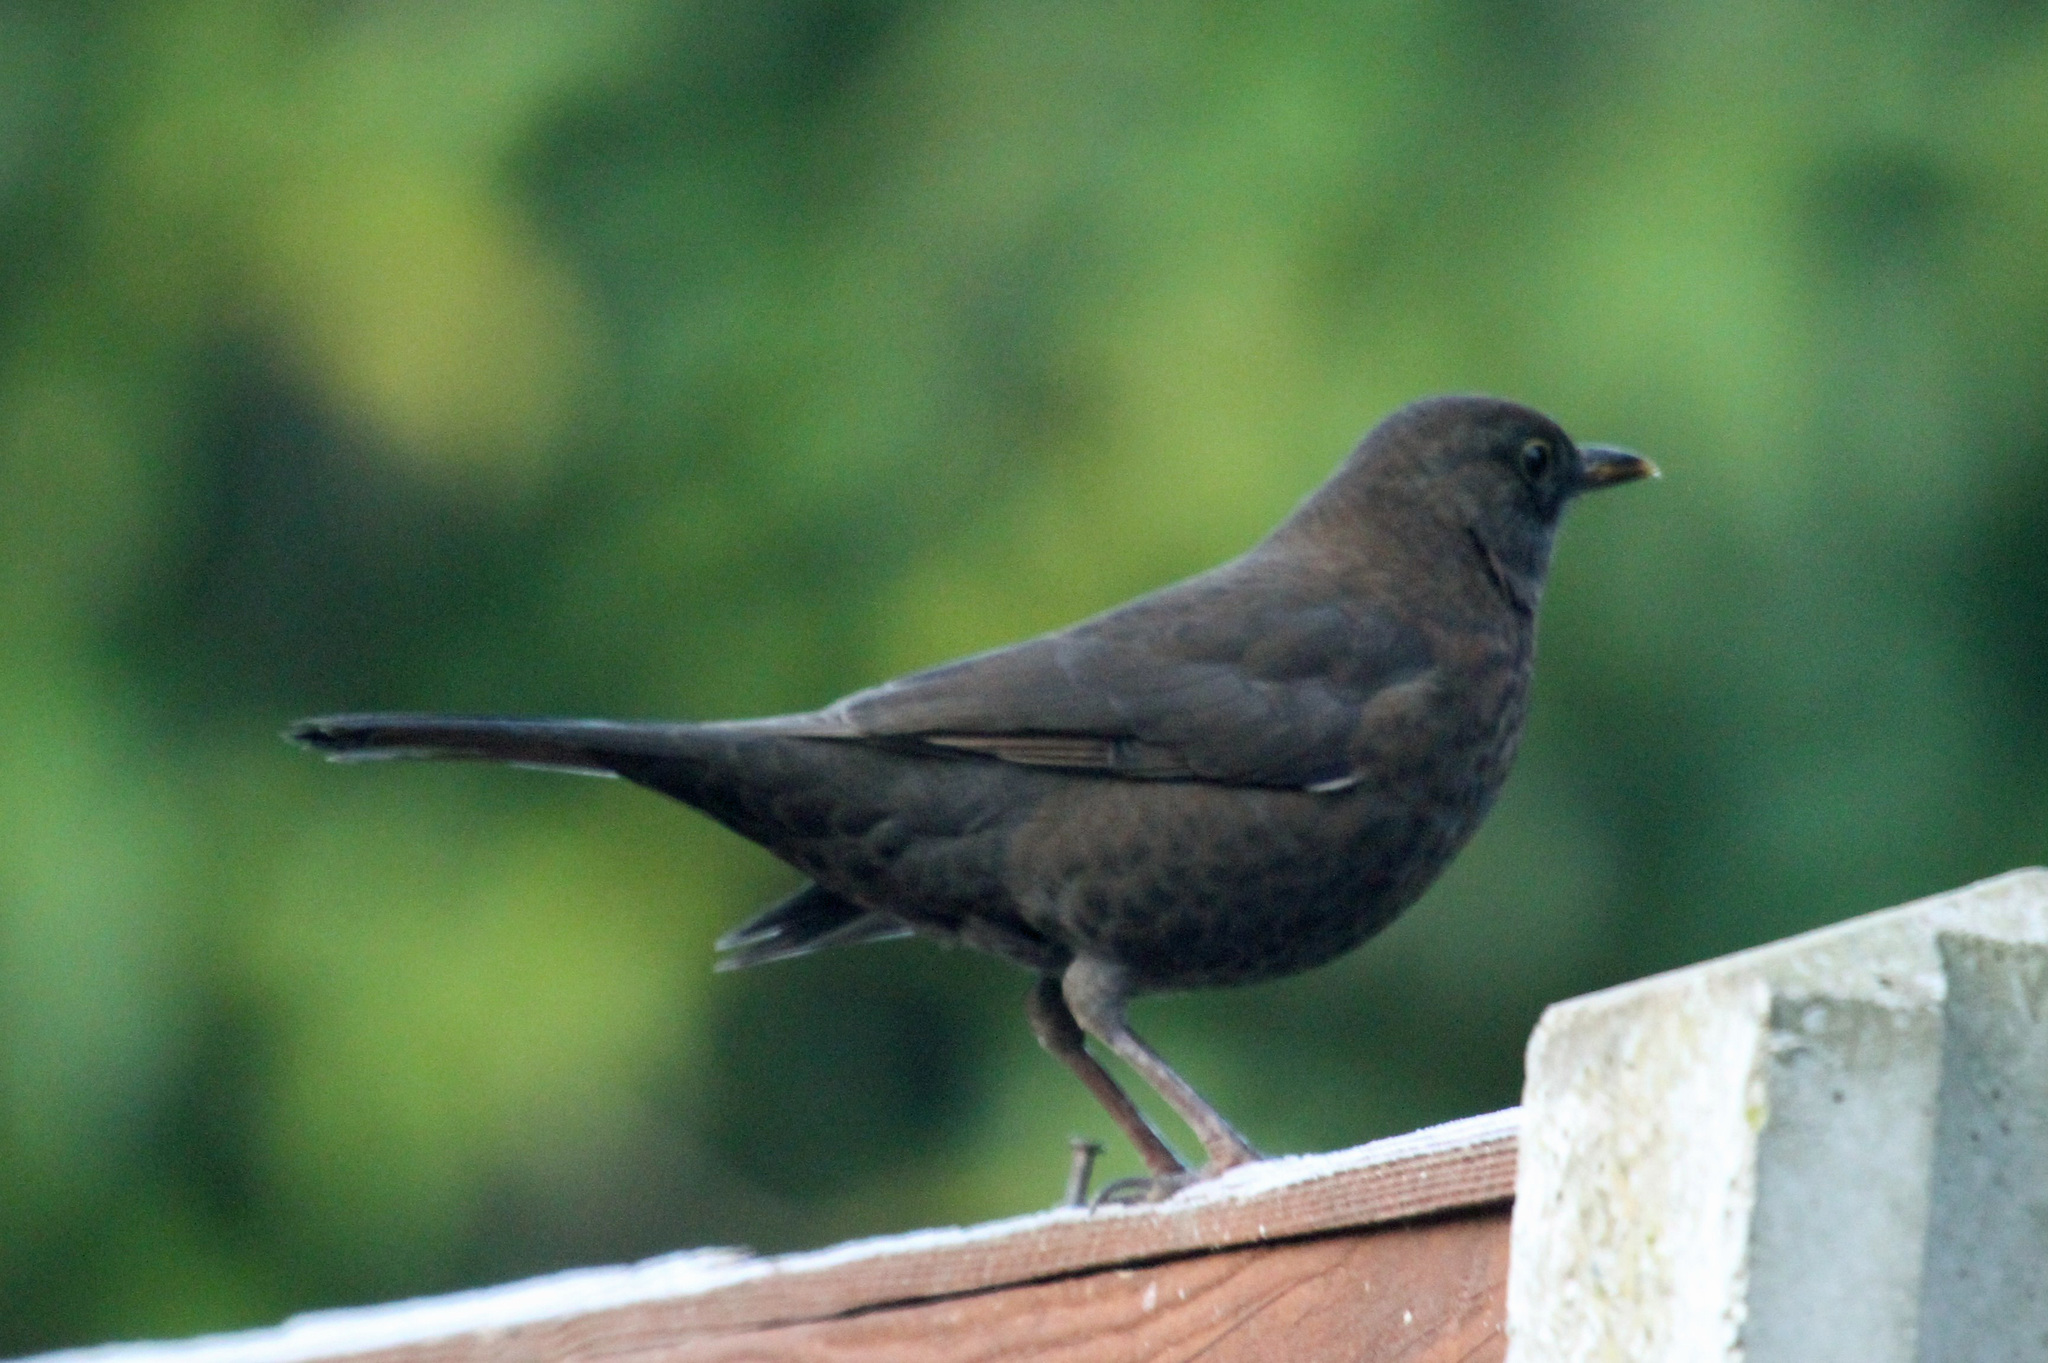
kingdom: Animalia
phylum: Chordata
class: Aves
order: Passeriformes
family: Turdidae
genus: Turdus
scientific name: Turdus merula
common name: Common blackbird
